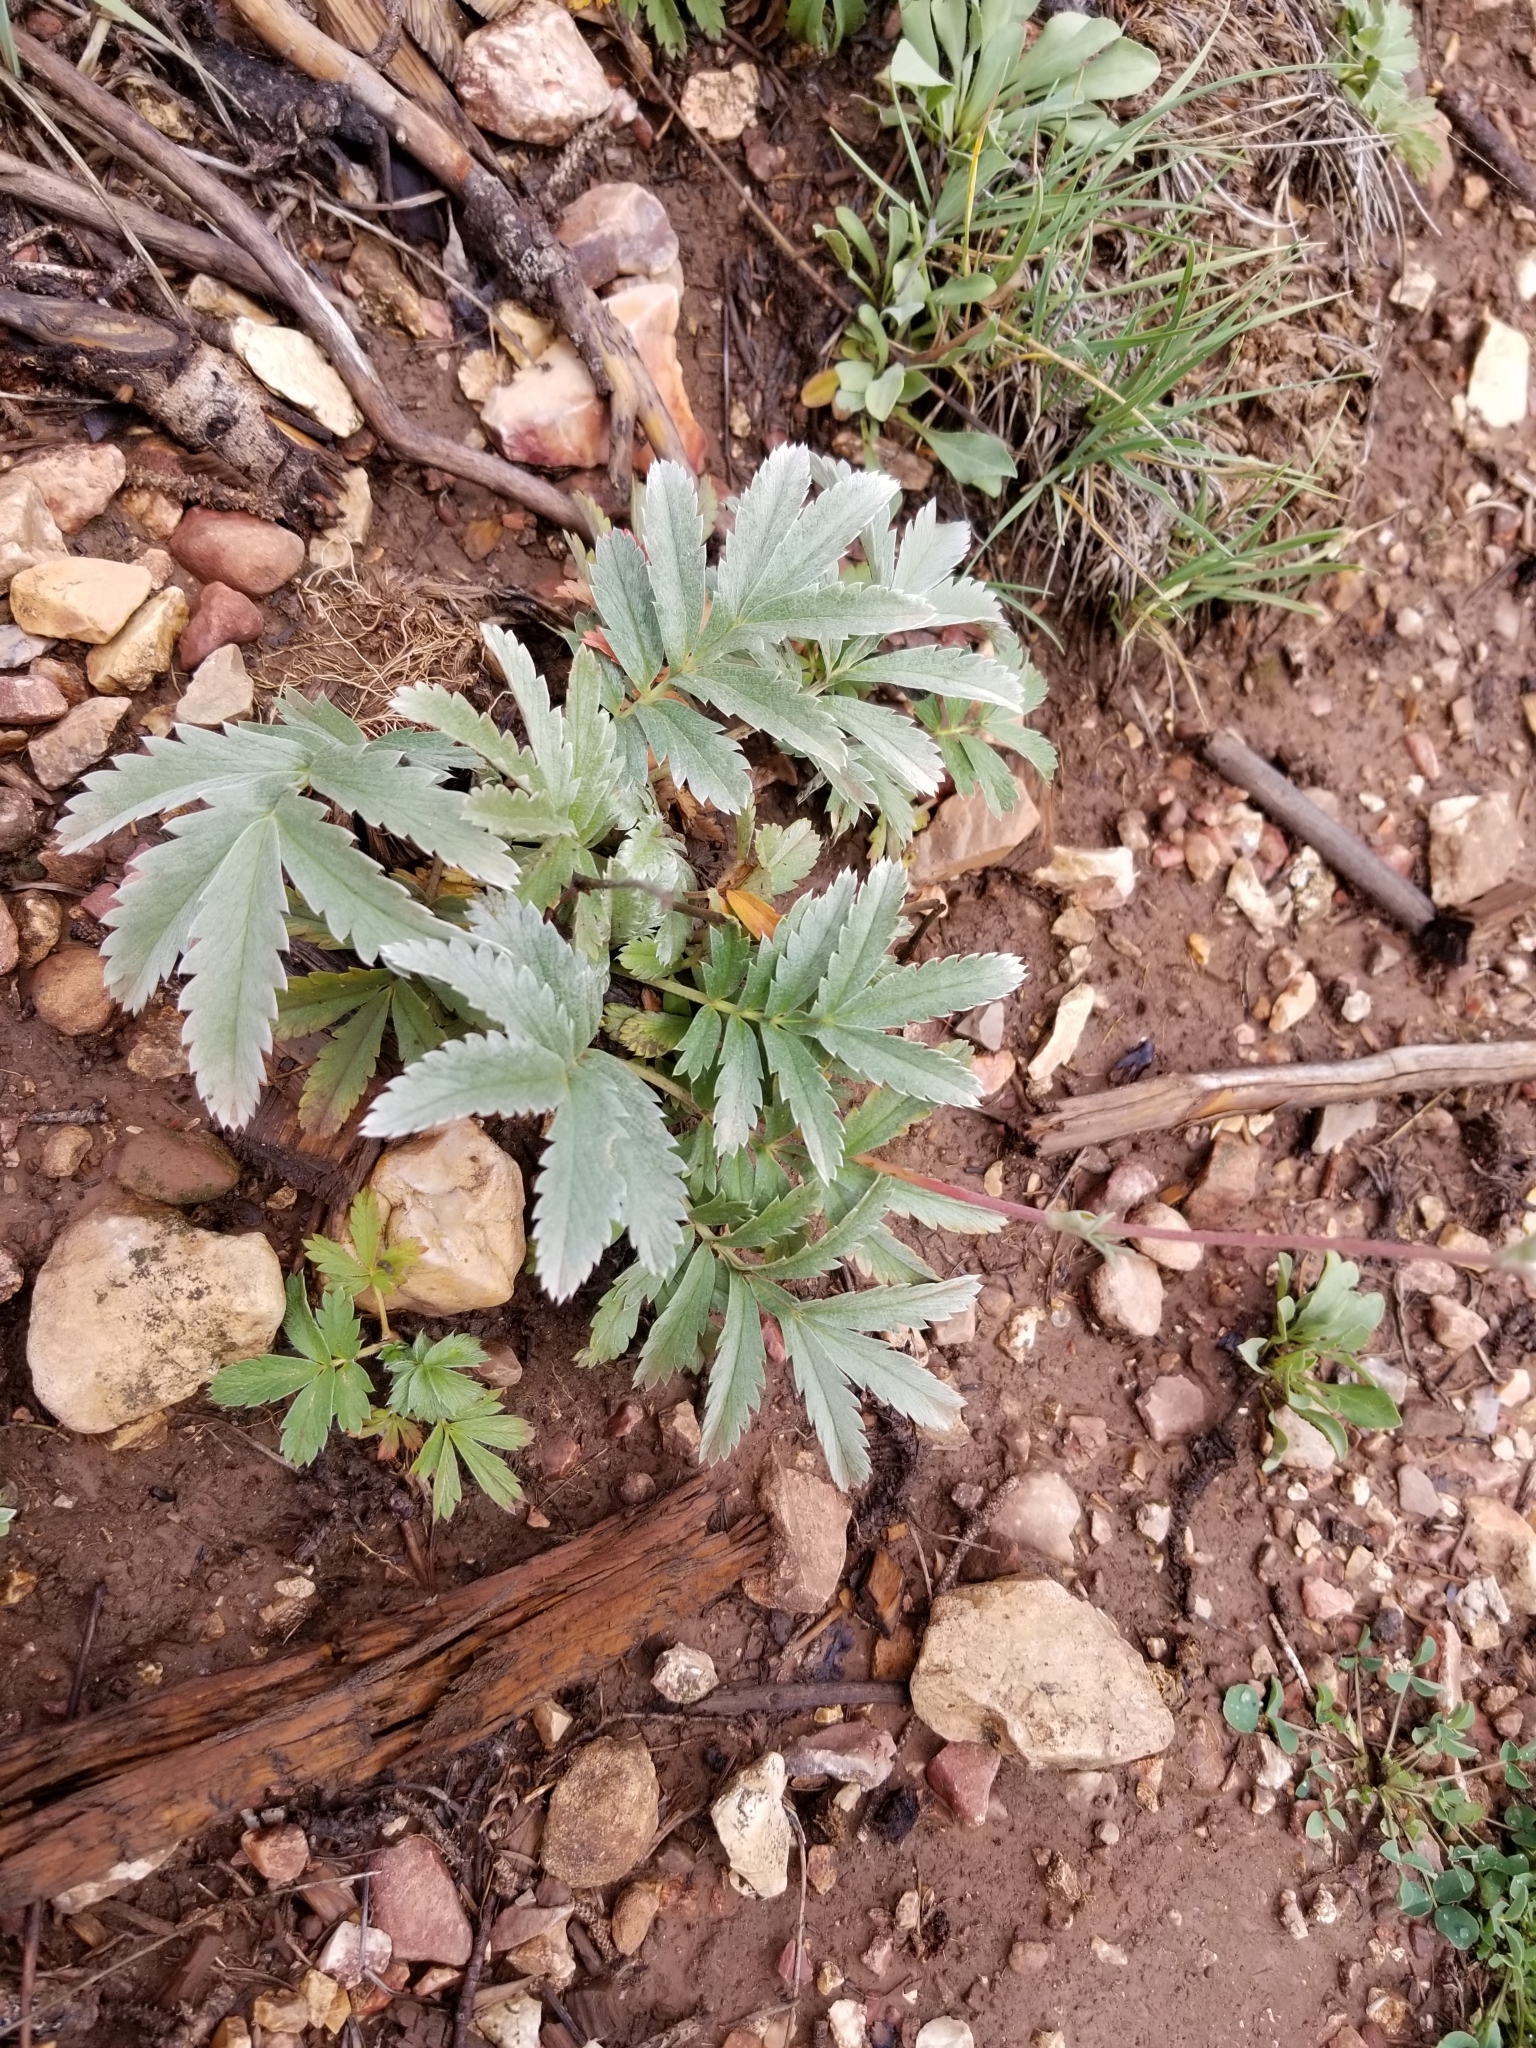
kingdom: Plantae
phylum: Tracheophyta
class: Magnoliopsida
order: Rosales
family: Rosaceae
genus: Potentilla
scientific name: Potentilla hippiana
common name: Woolly cinquefoil
